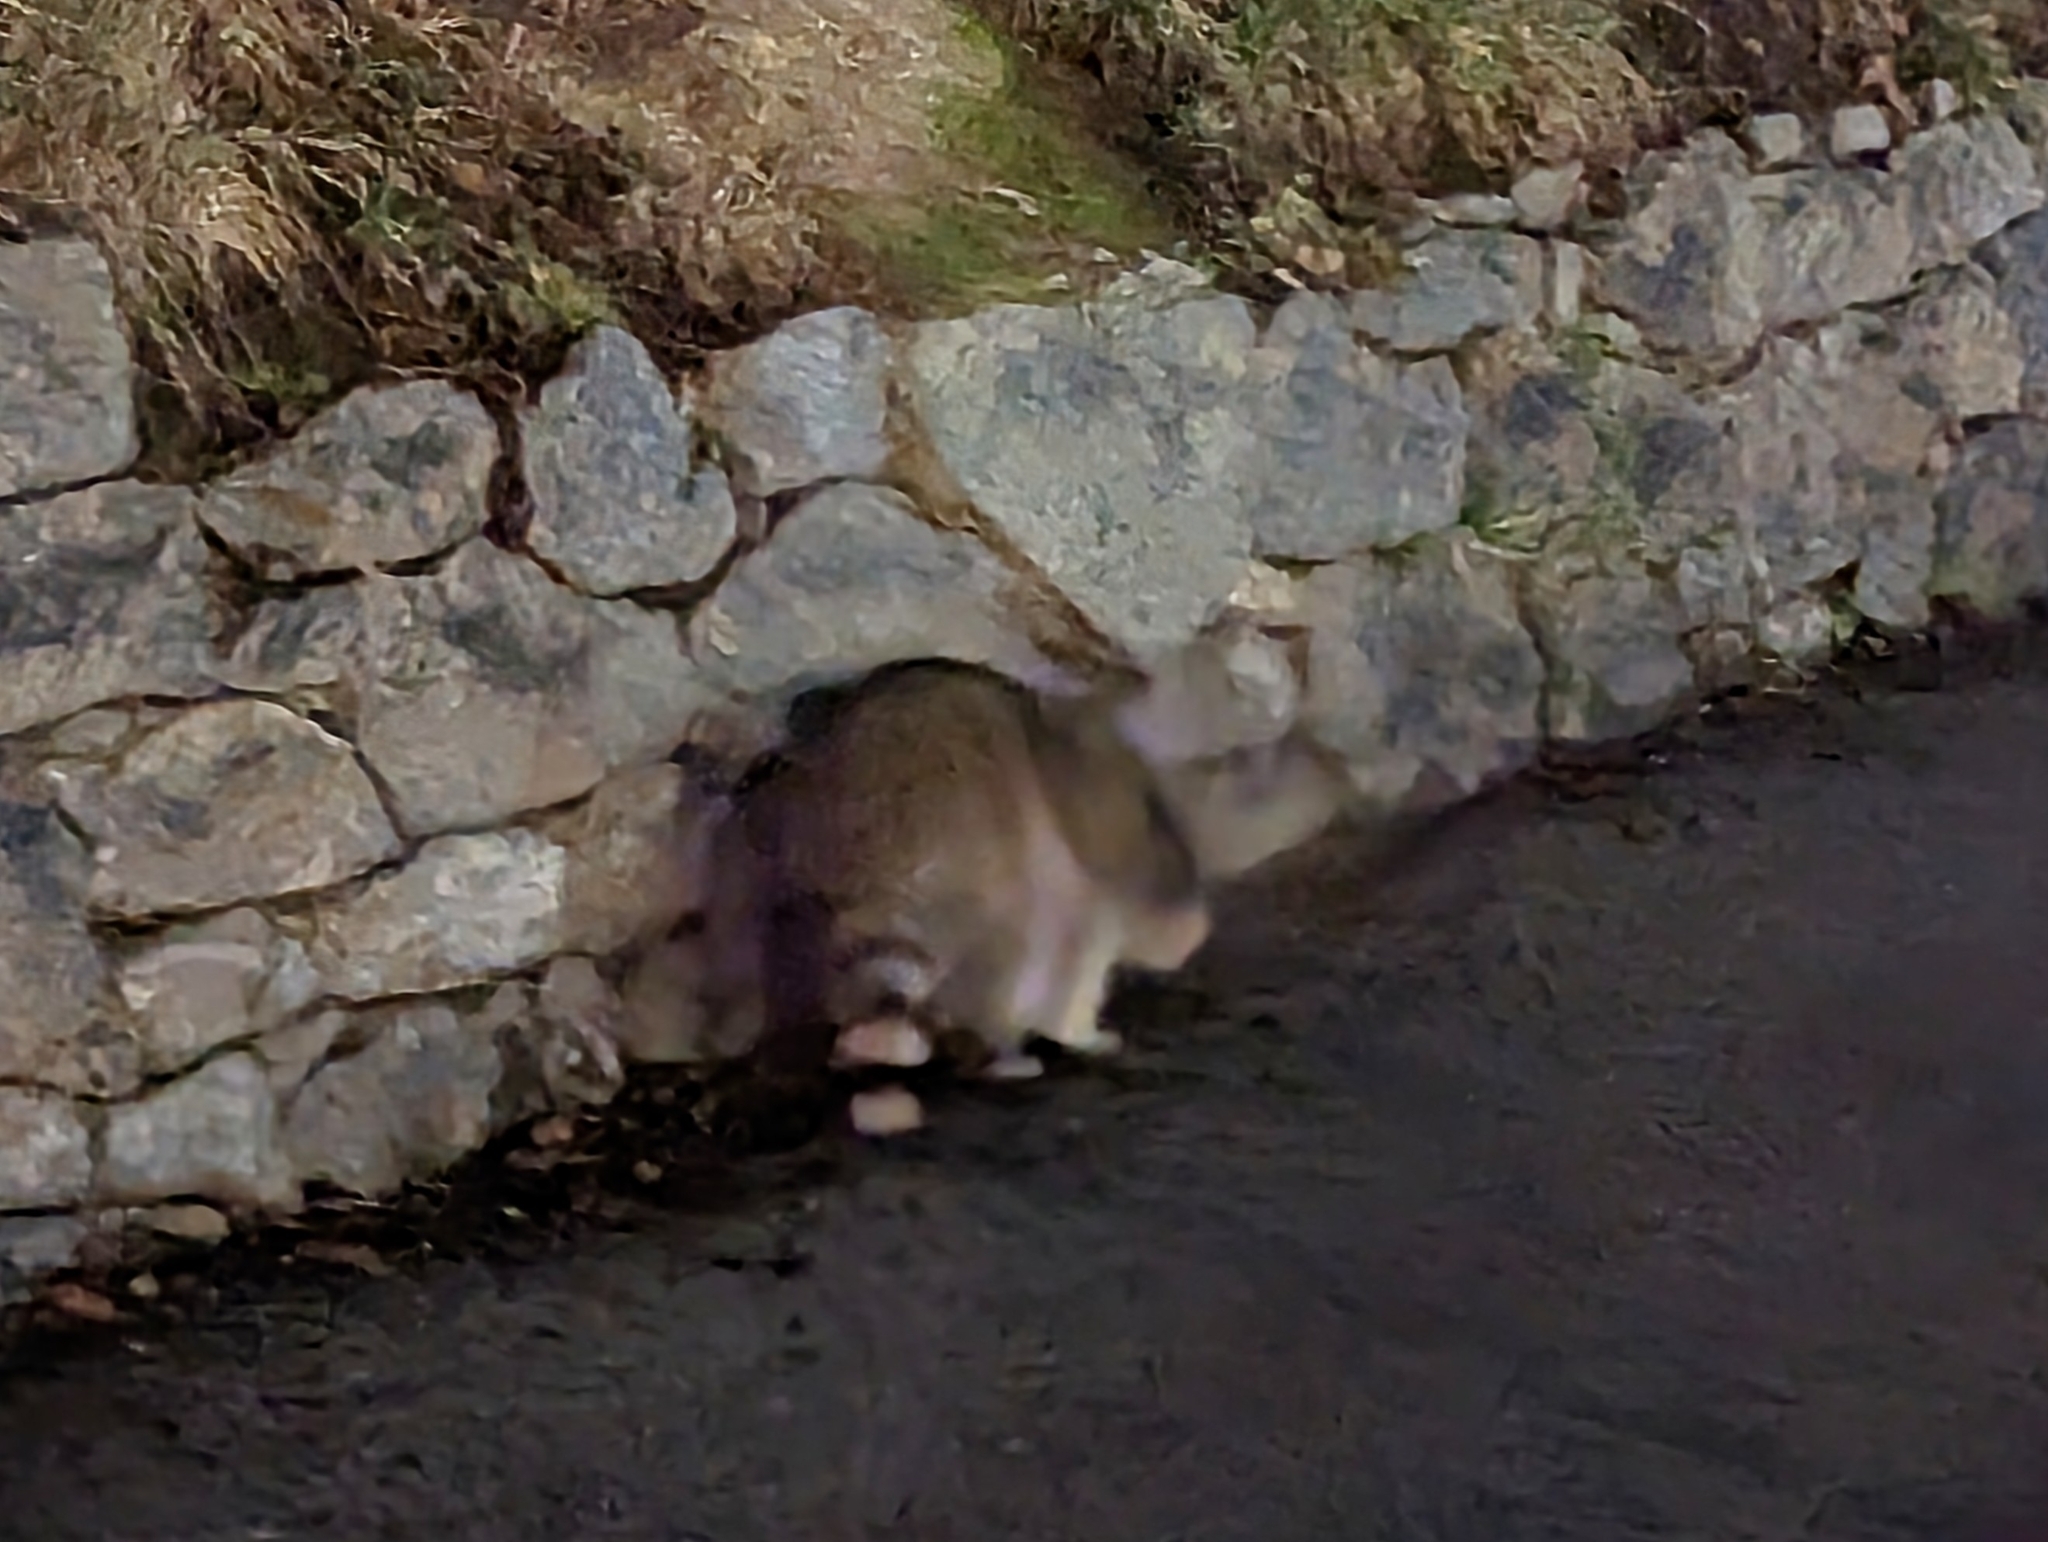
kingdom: Animalia
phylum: Chordata
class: Mammalia
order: Carnivora
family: Procyonidae
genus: Procyon
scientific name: Procyon lotor
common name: Raccoon
